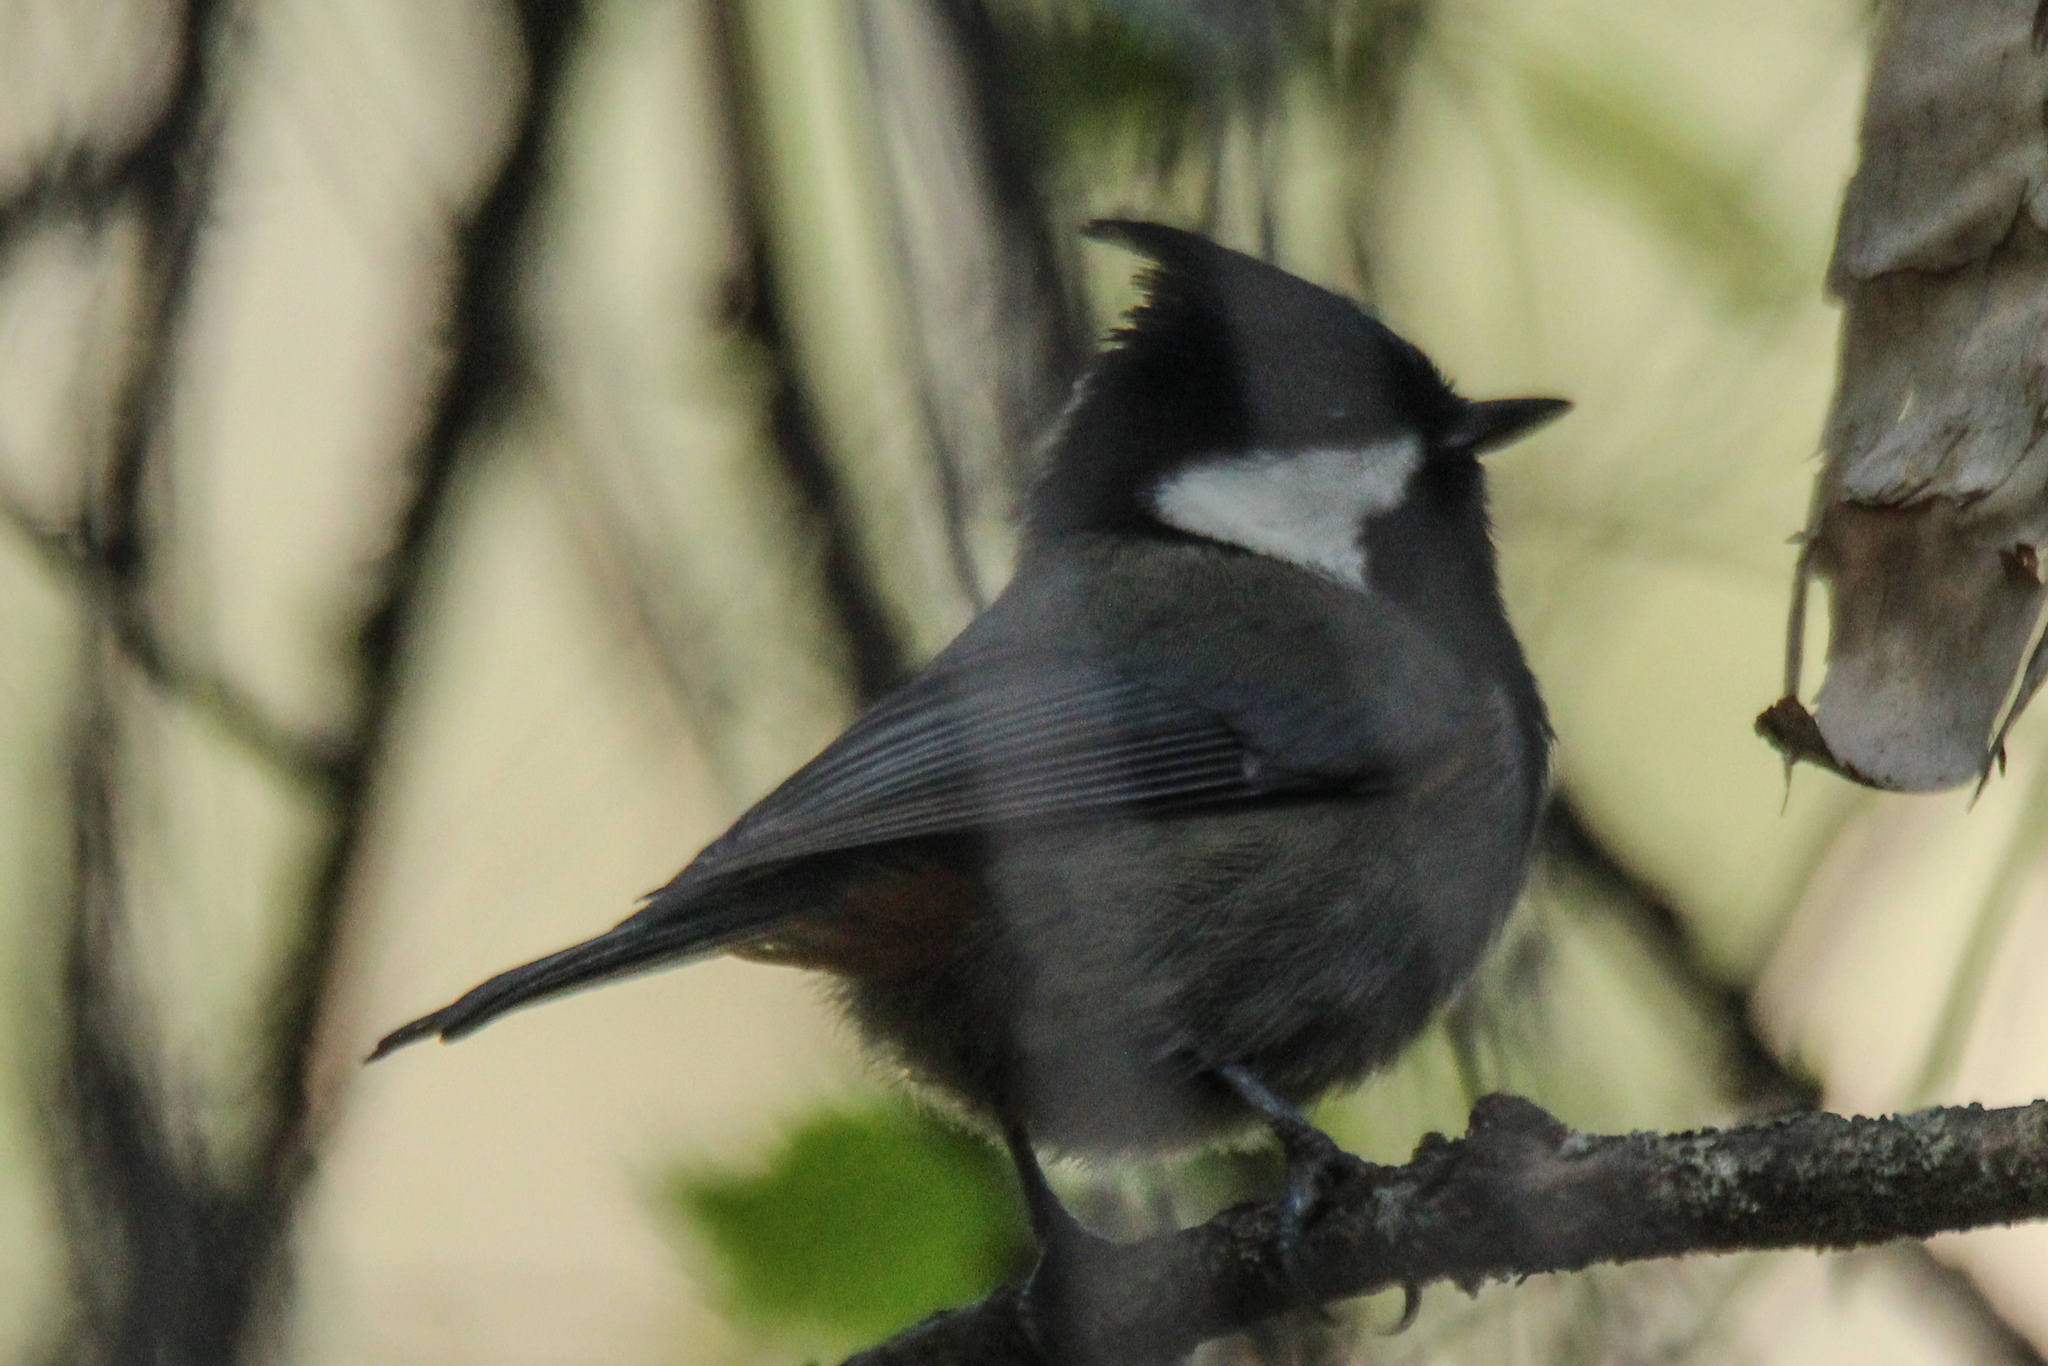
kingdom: Animalia
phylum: Chordata
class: Aves
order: Passeriformes
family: Paridae
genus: Periparus
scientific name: Periparus rufonuchalis
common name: Rufous-naped tit
